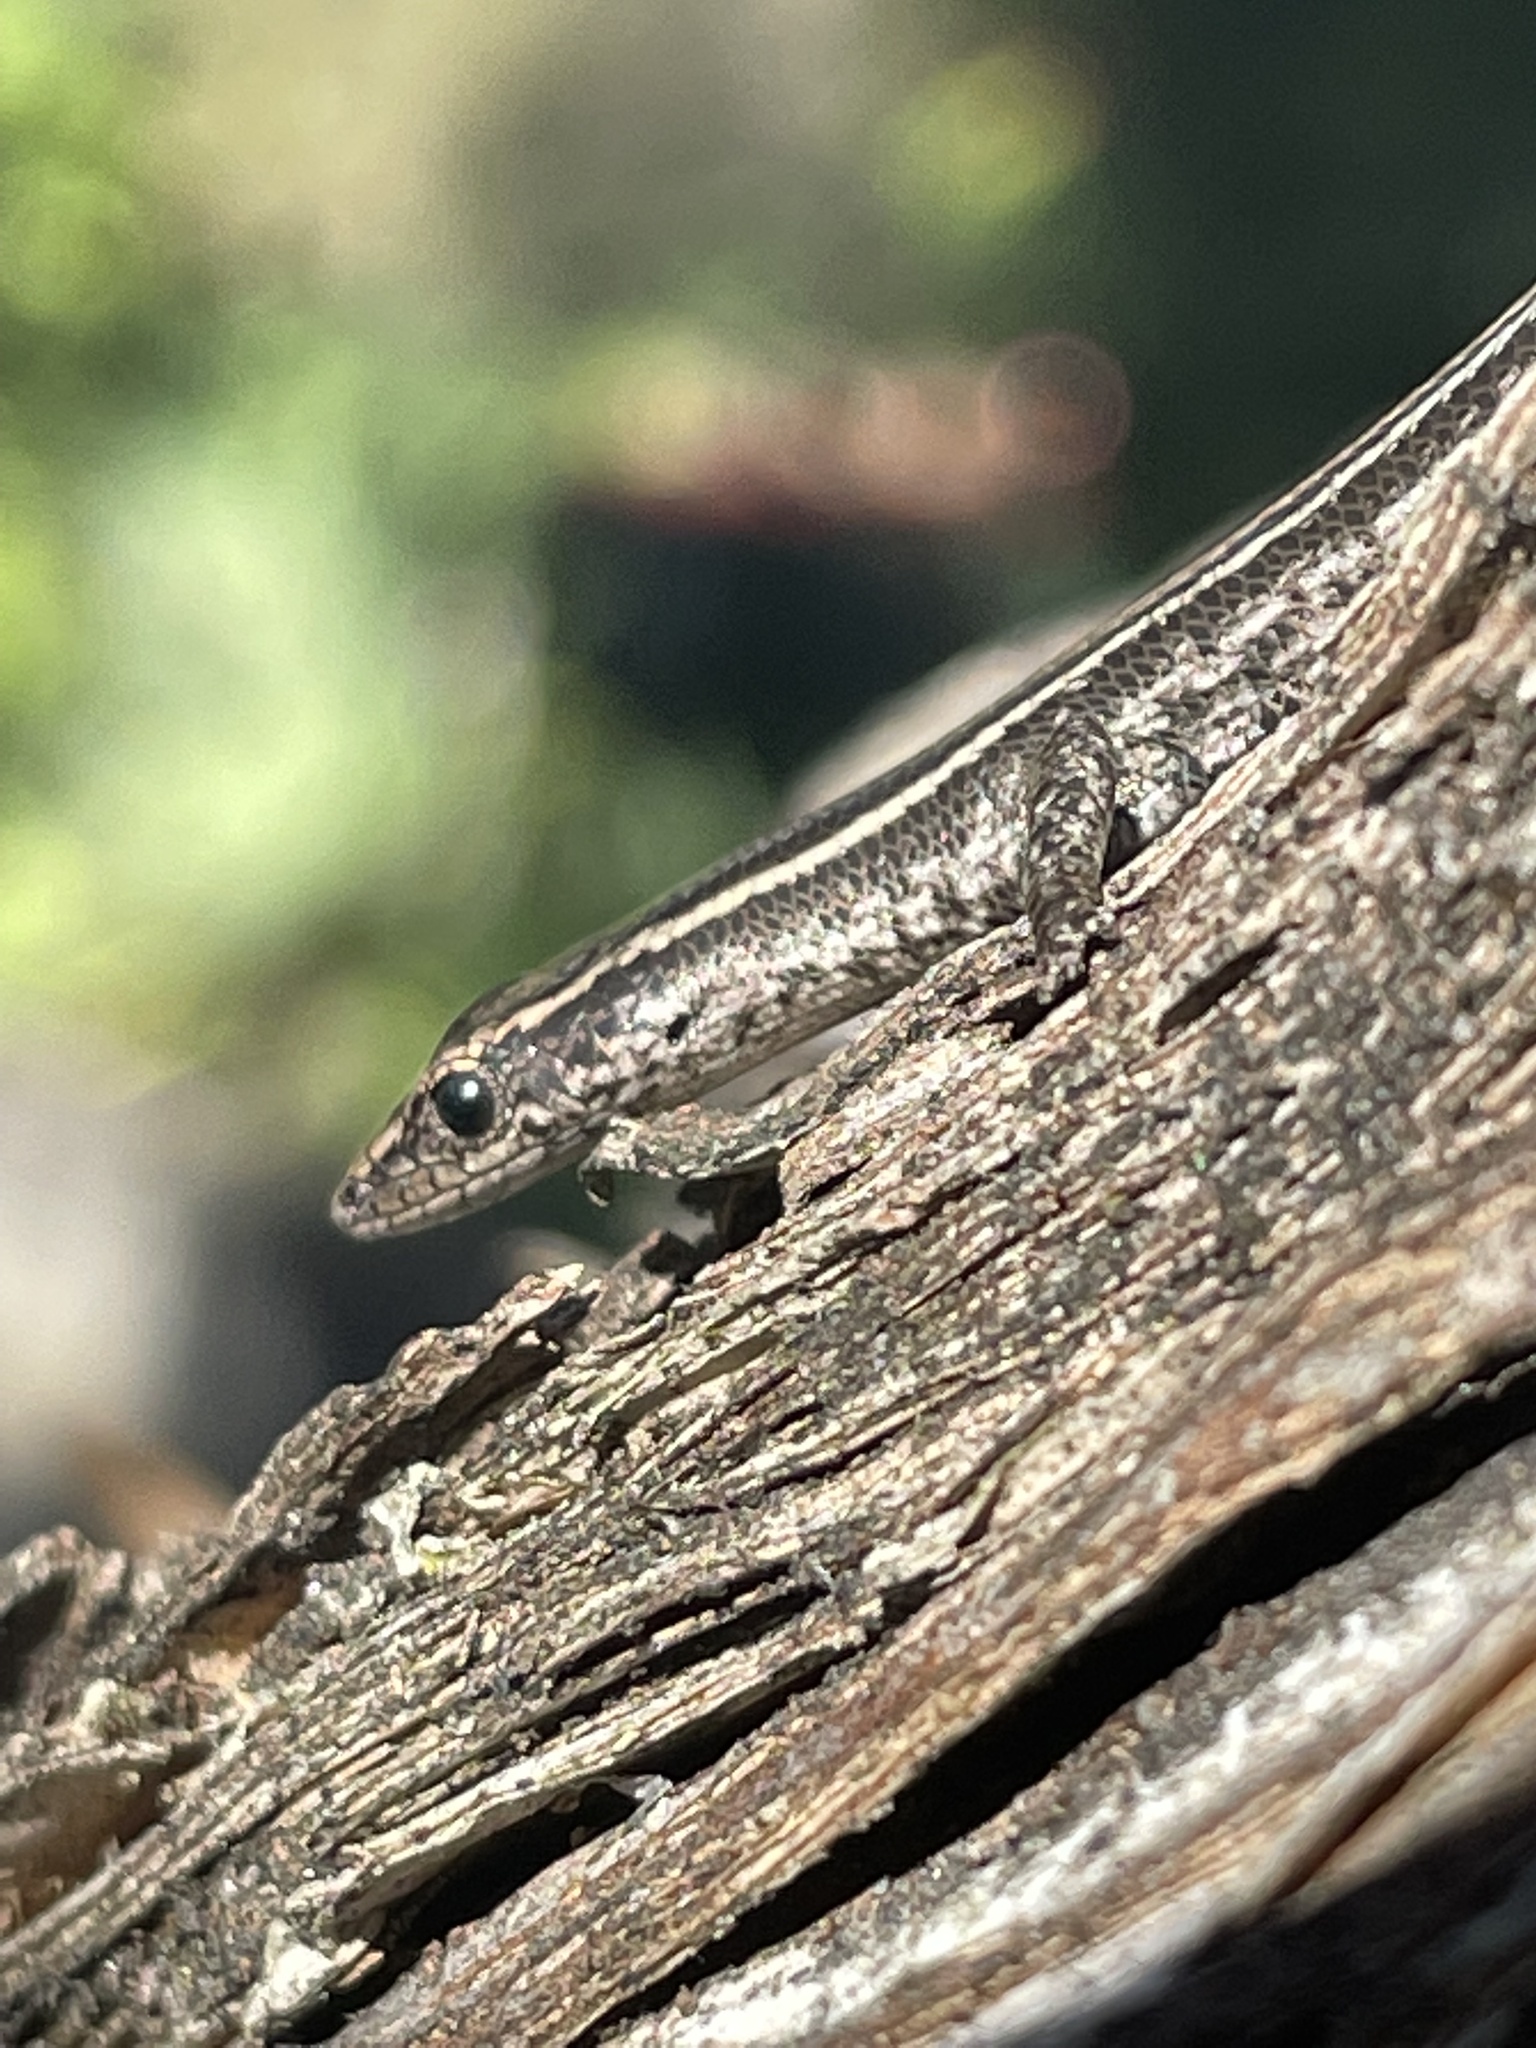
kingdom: Animalia
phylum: Chordata
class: Squamata
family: Scincidae
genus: Cryptoblepharus
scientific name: Cryptoblepharus pulcher
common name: Elegant snake-eyed skink
